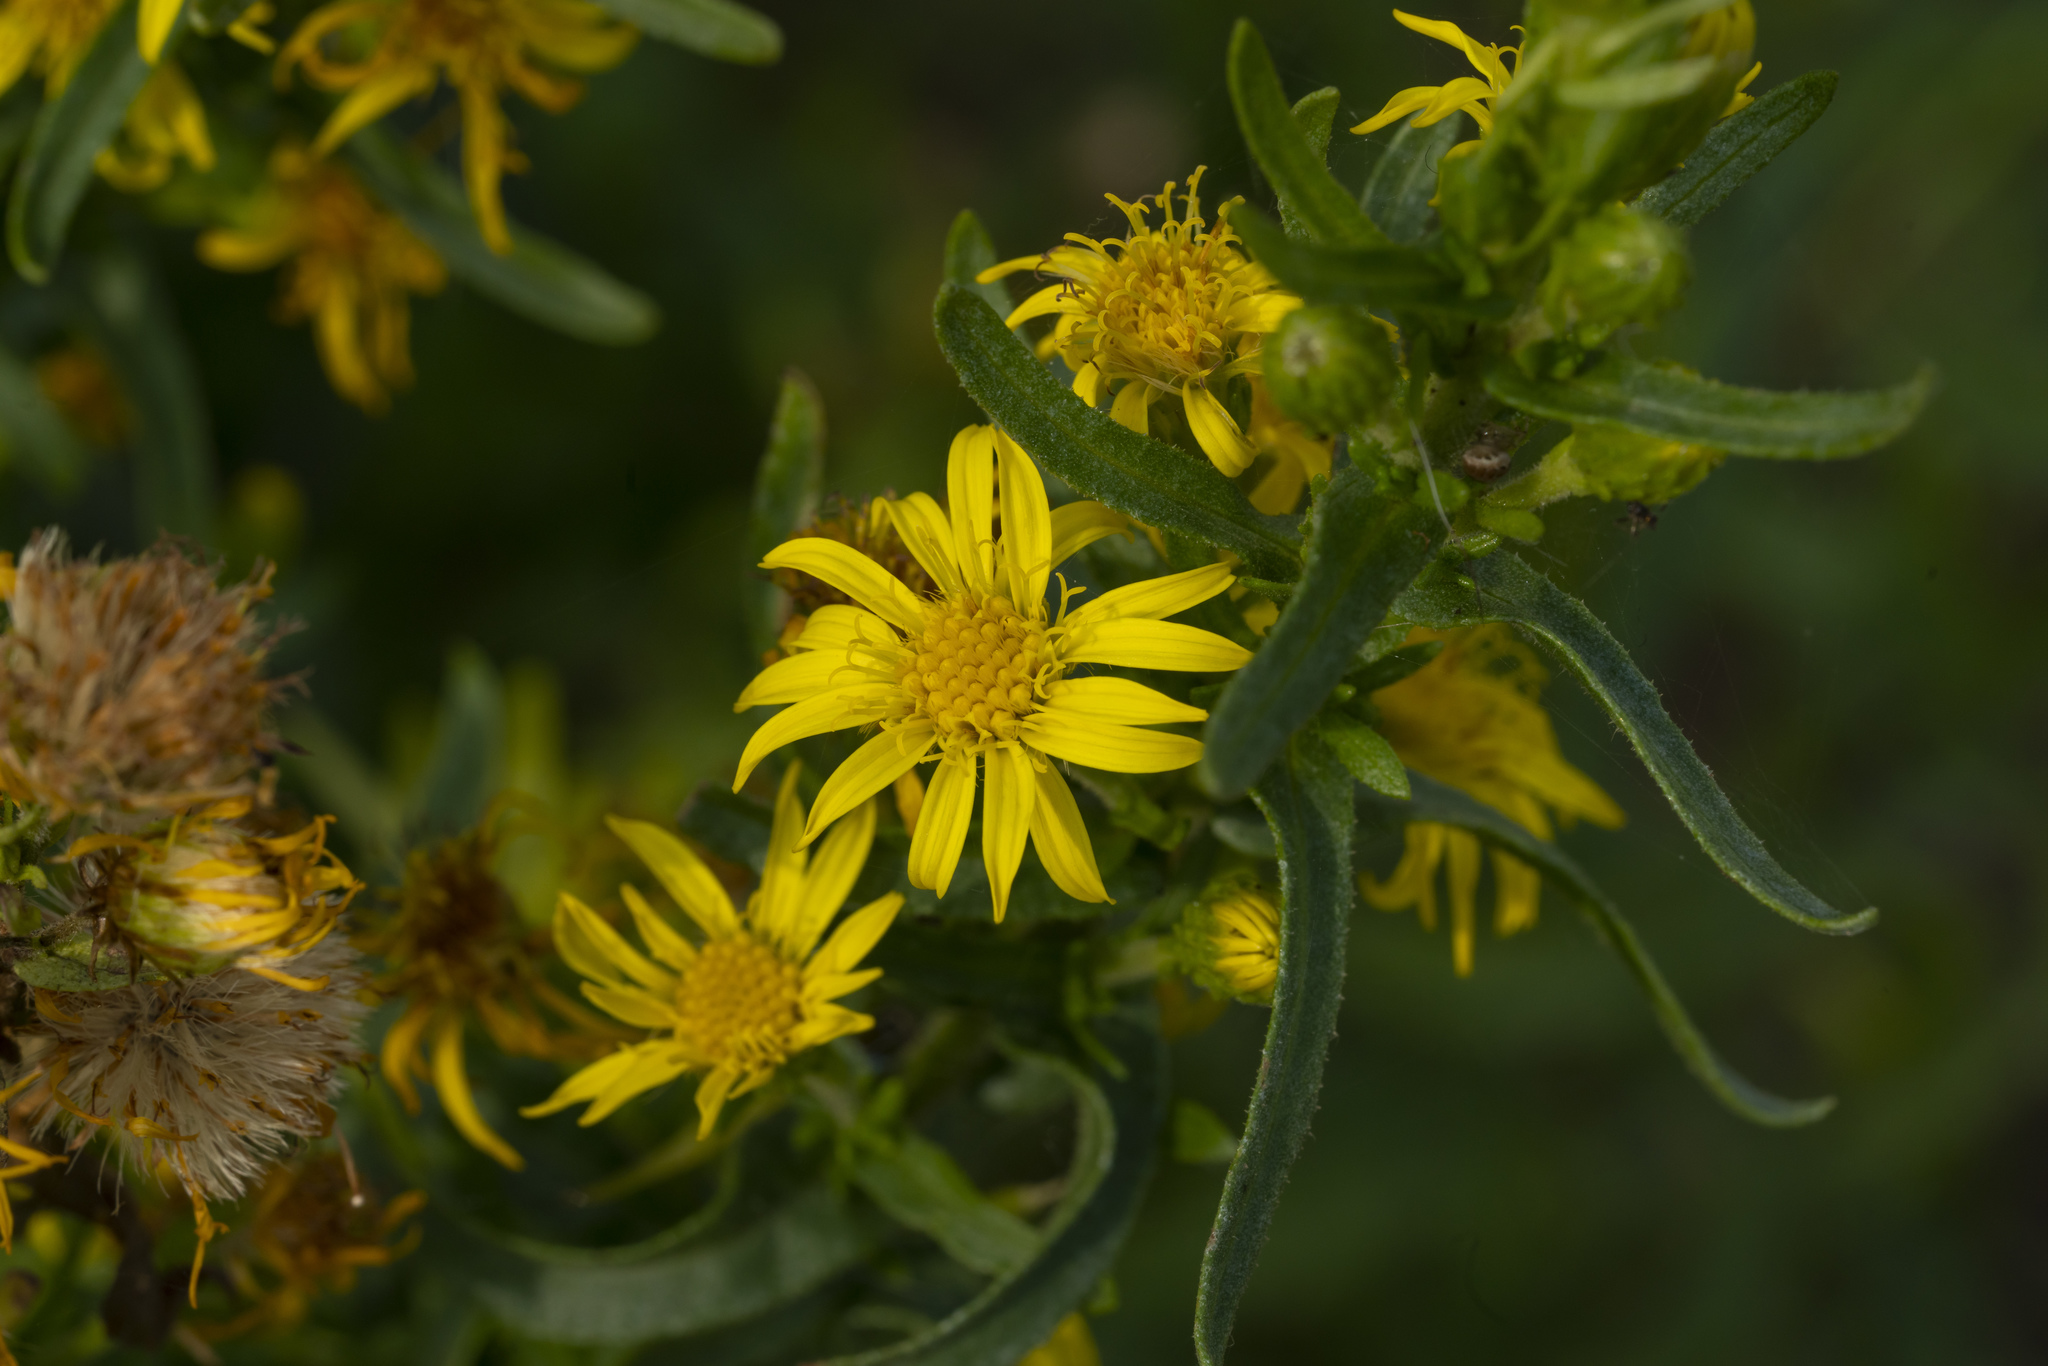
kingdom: Plantae
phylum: Tracheophyta
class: Magnoliopsida
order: Asterales
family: Asteraceae
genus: Dittrichia
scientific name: Dittrichia viscosa
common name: Woody fleabane
